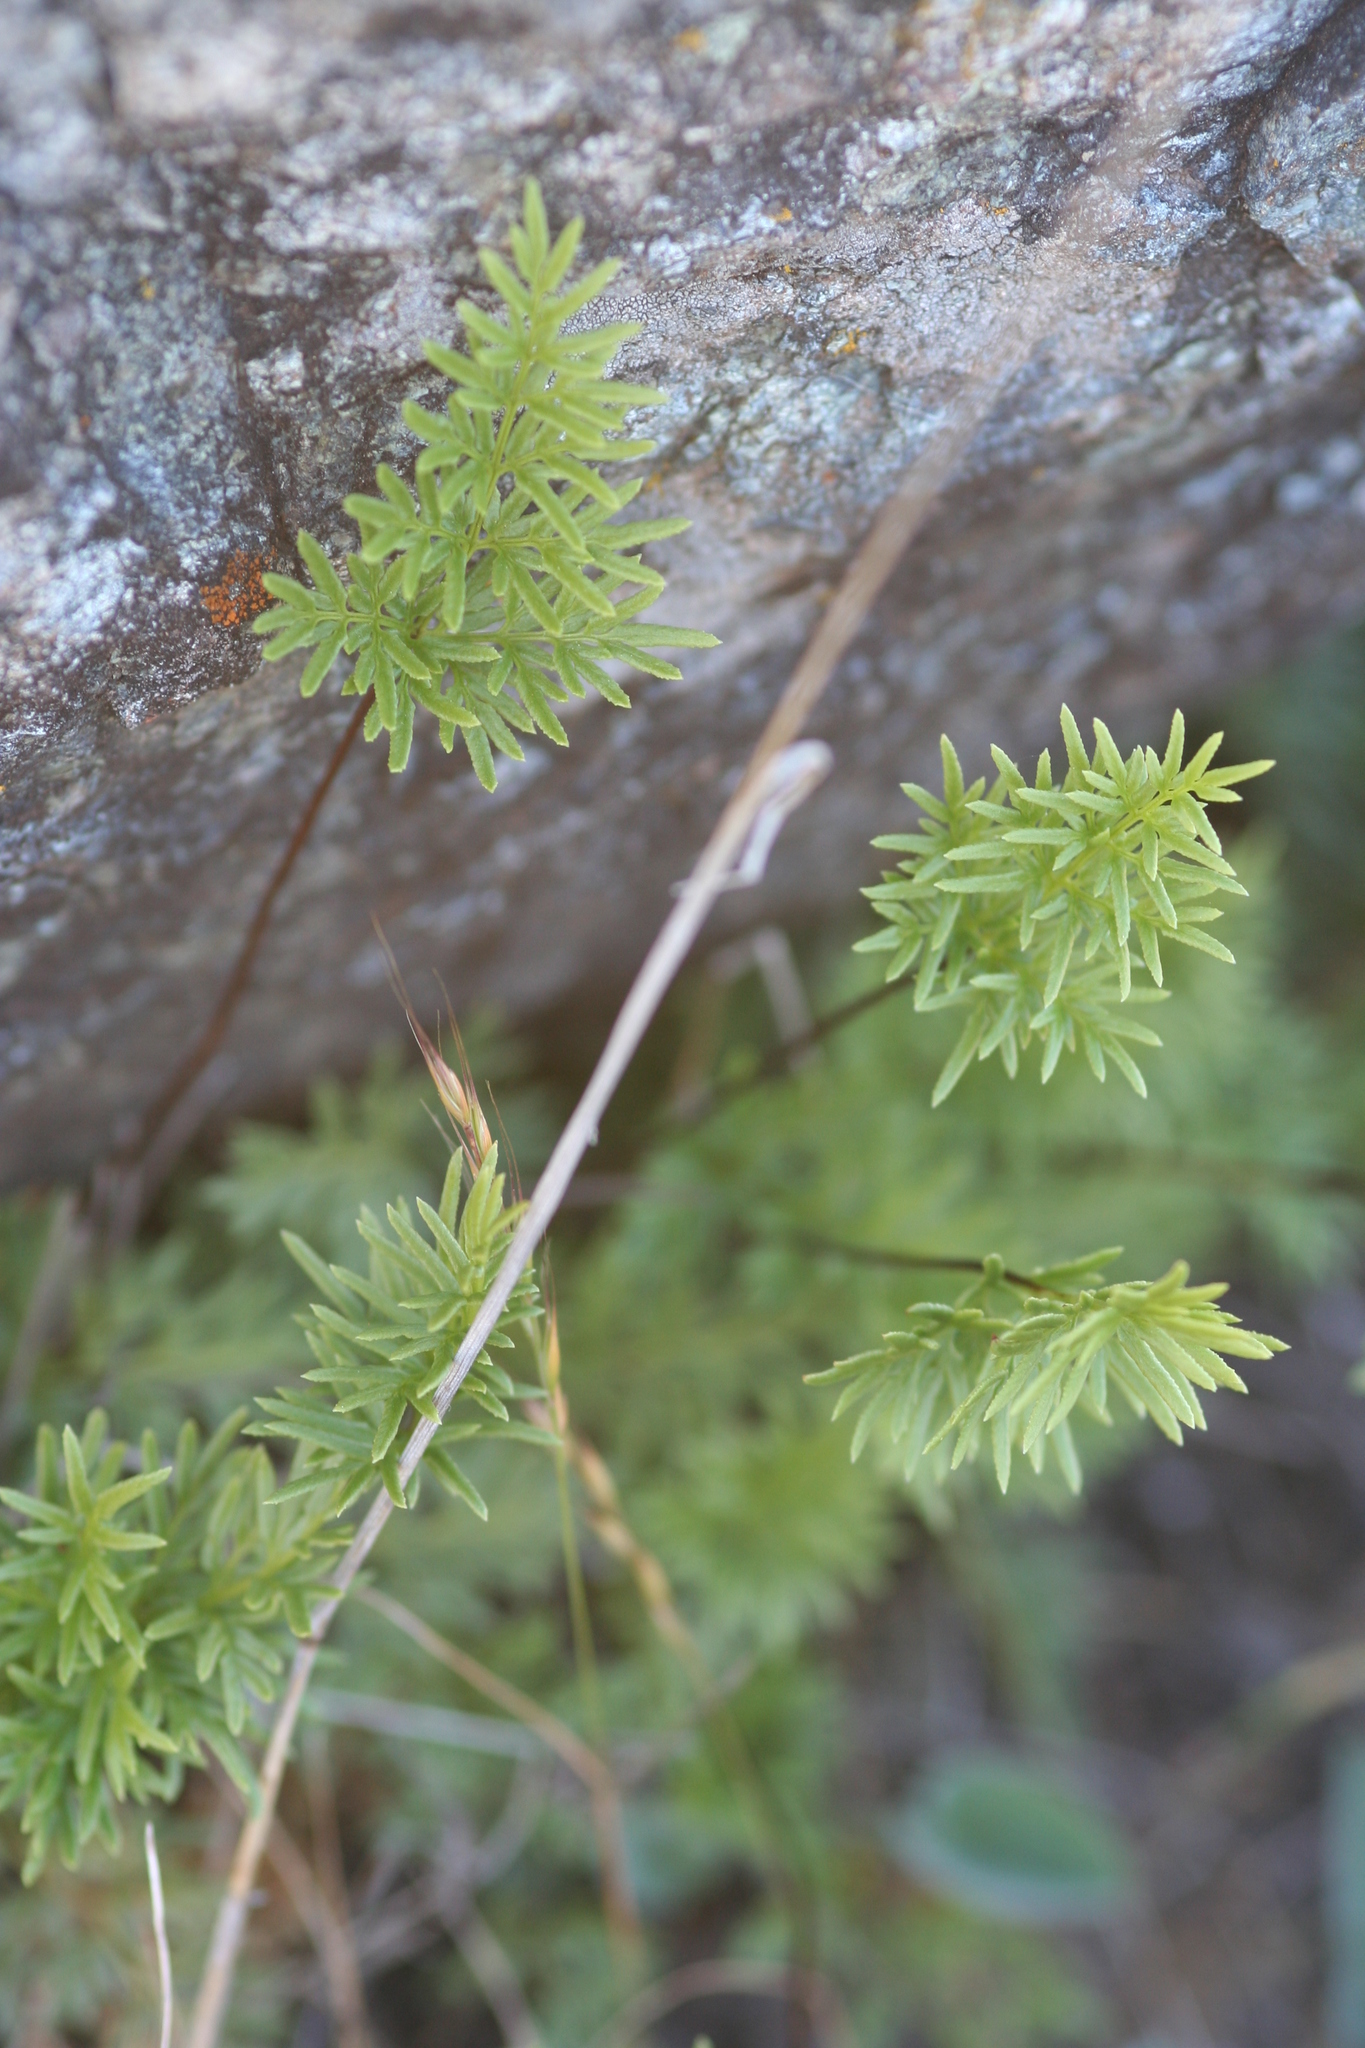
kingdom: Plantae
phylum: Tracheophyta
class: Polypodiopsida
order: Polypodiales
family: Pteridaceae
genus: Aspidotis
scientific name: Aspidotis densa
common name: Indian's dream
